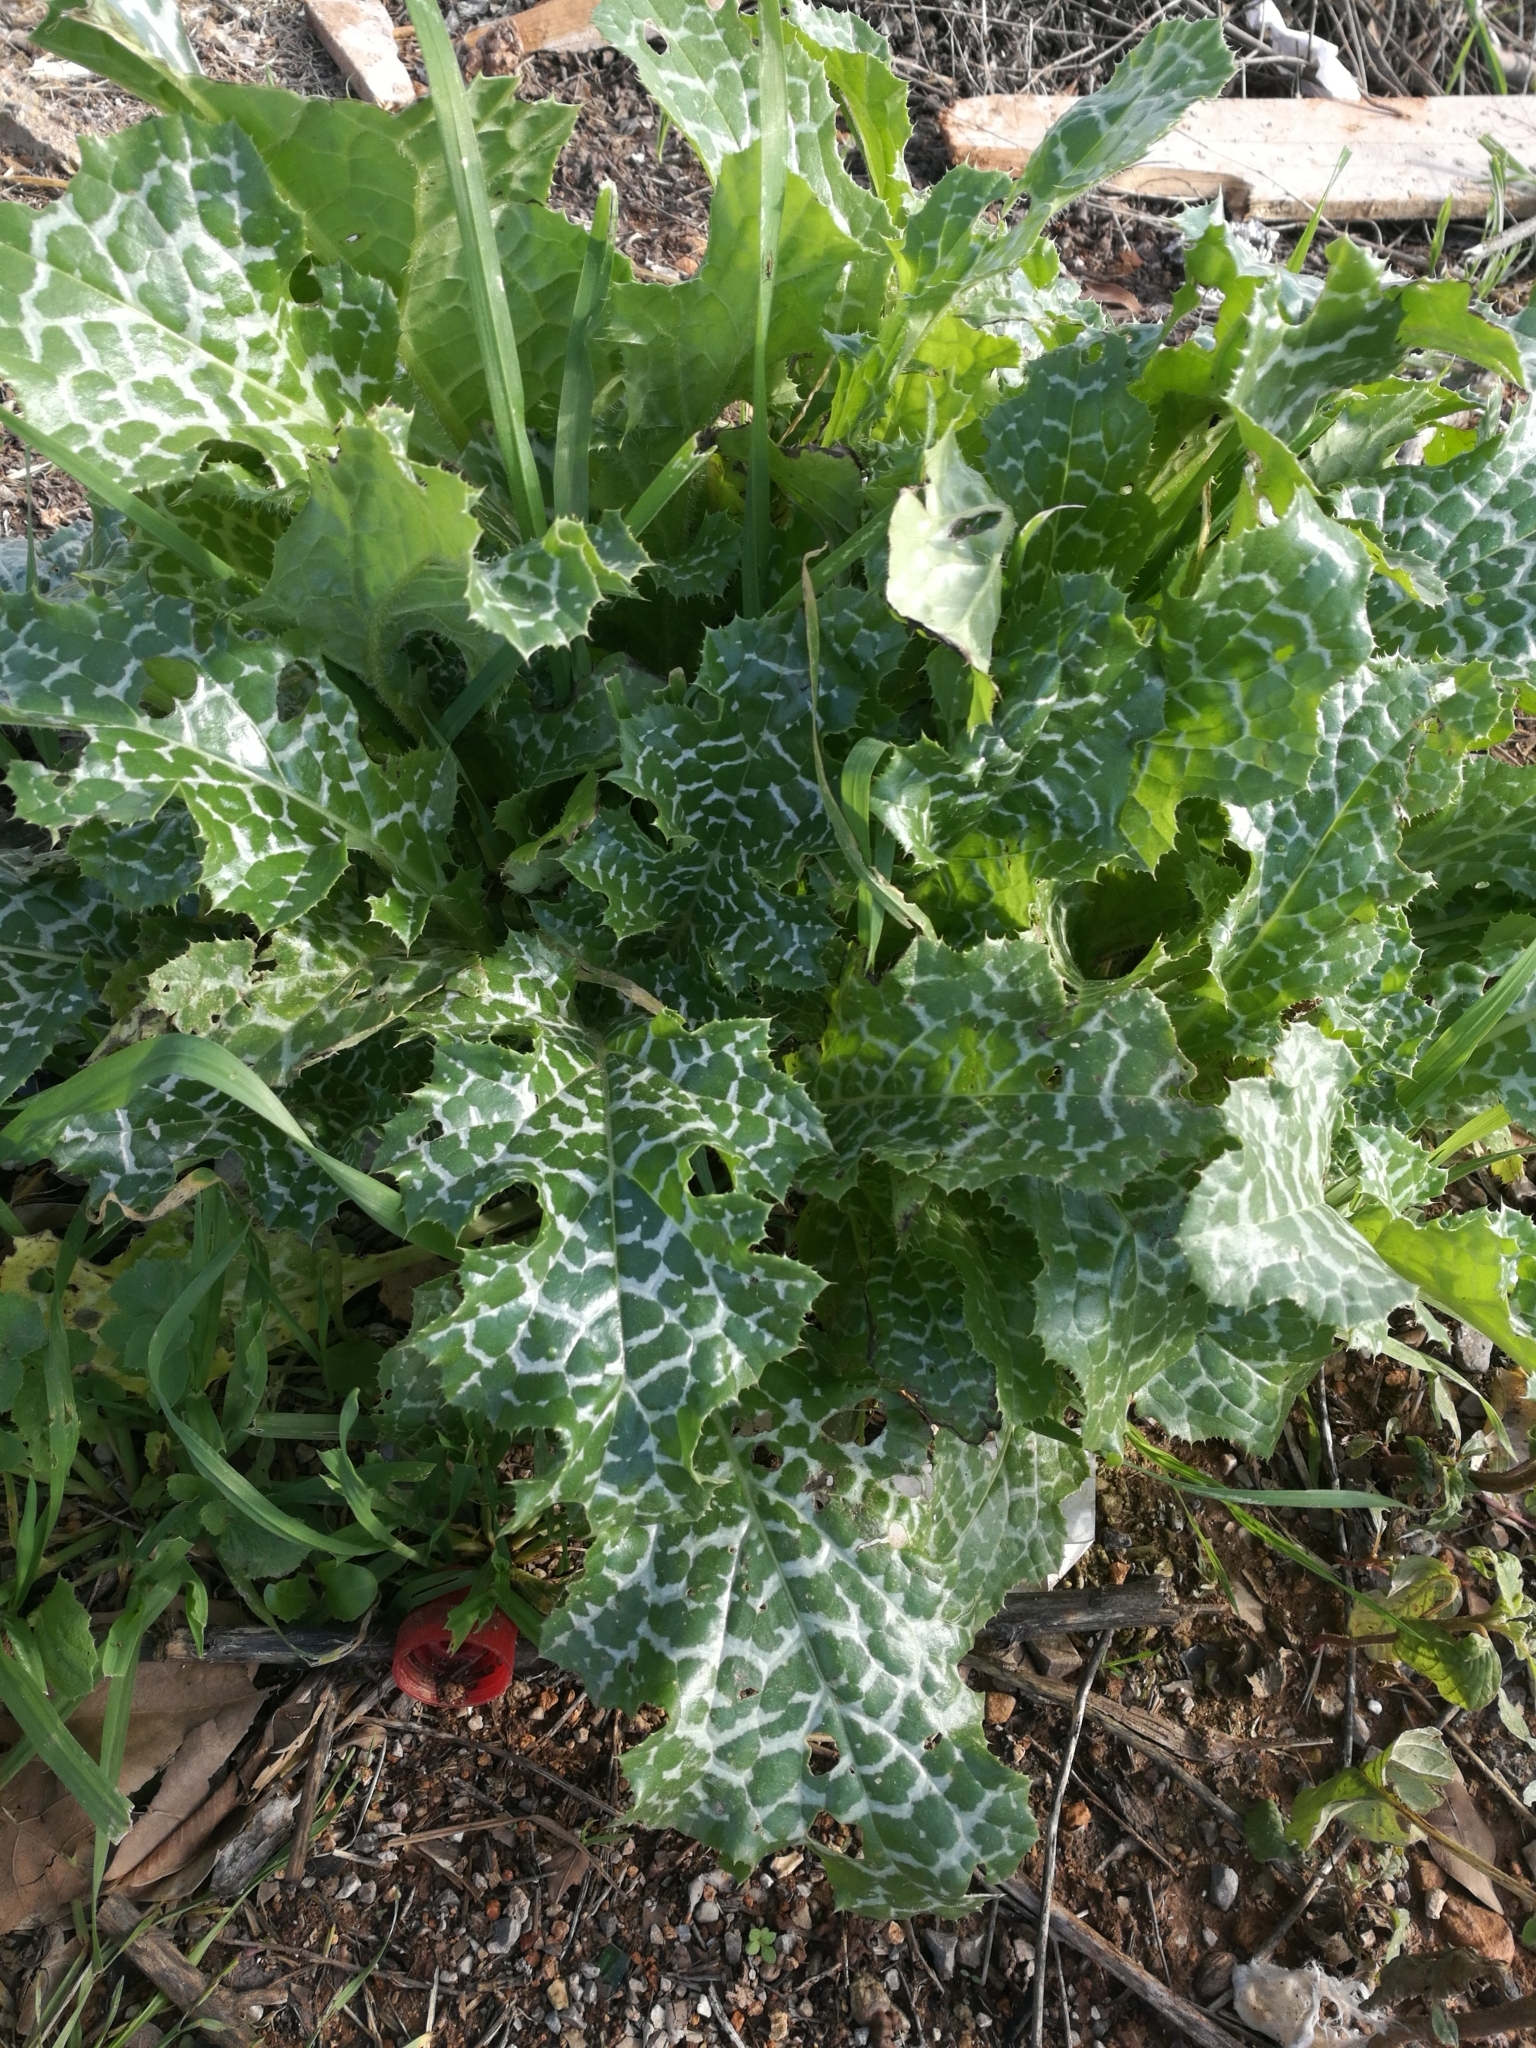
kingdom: Plantae
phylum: Tracheophyta
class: Magnoliopsida
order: Asterales
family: Asteraceae
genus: Silybum
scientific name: Silybum marianum
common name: Milk thistle
